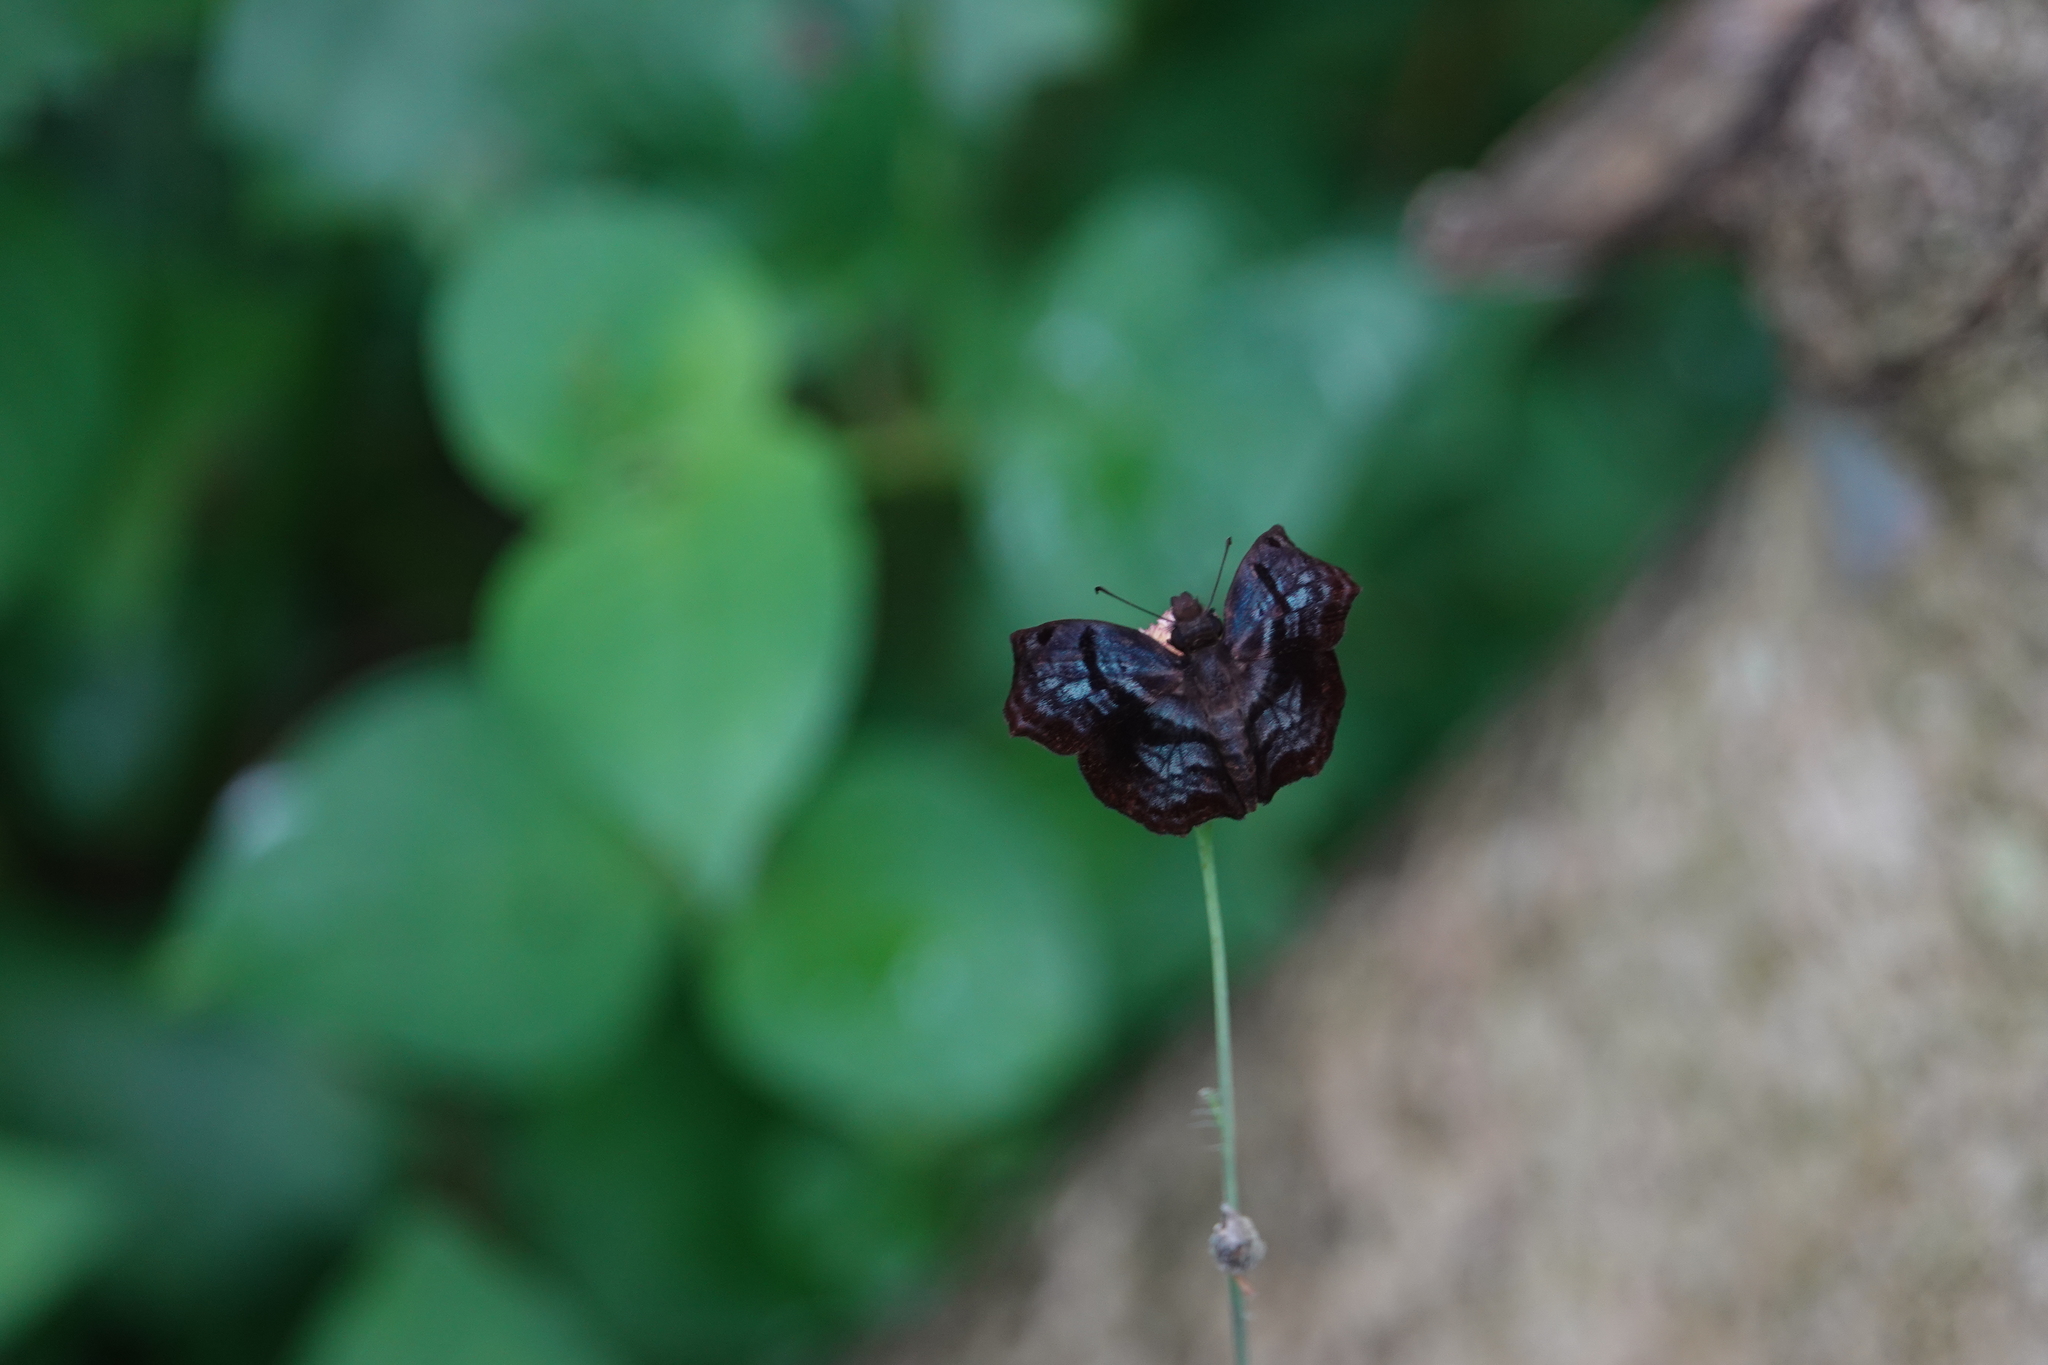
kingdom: Animalia
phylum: Arthropoda
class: Insecta
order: Lepidoptera
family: Hesperiidae
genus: Helias
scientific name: Helias phalaenoides
